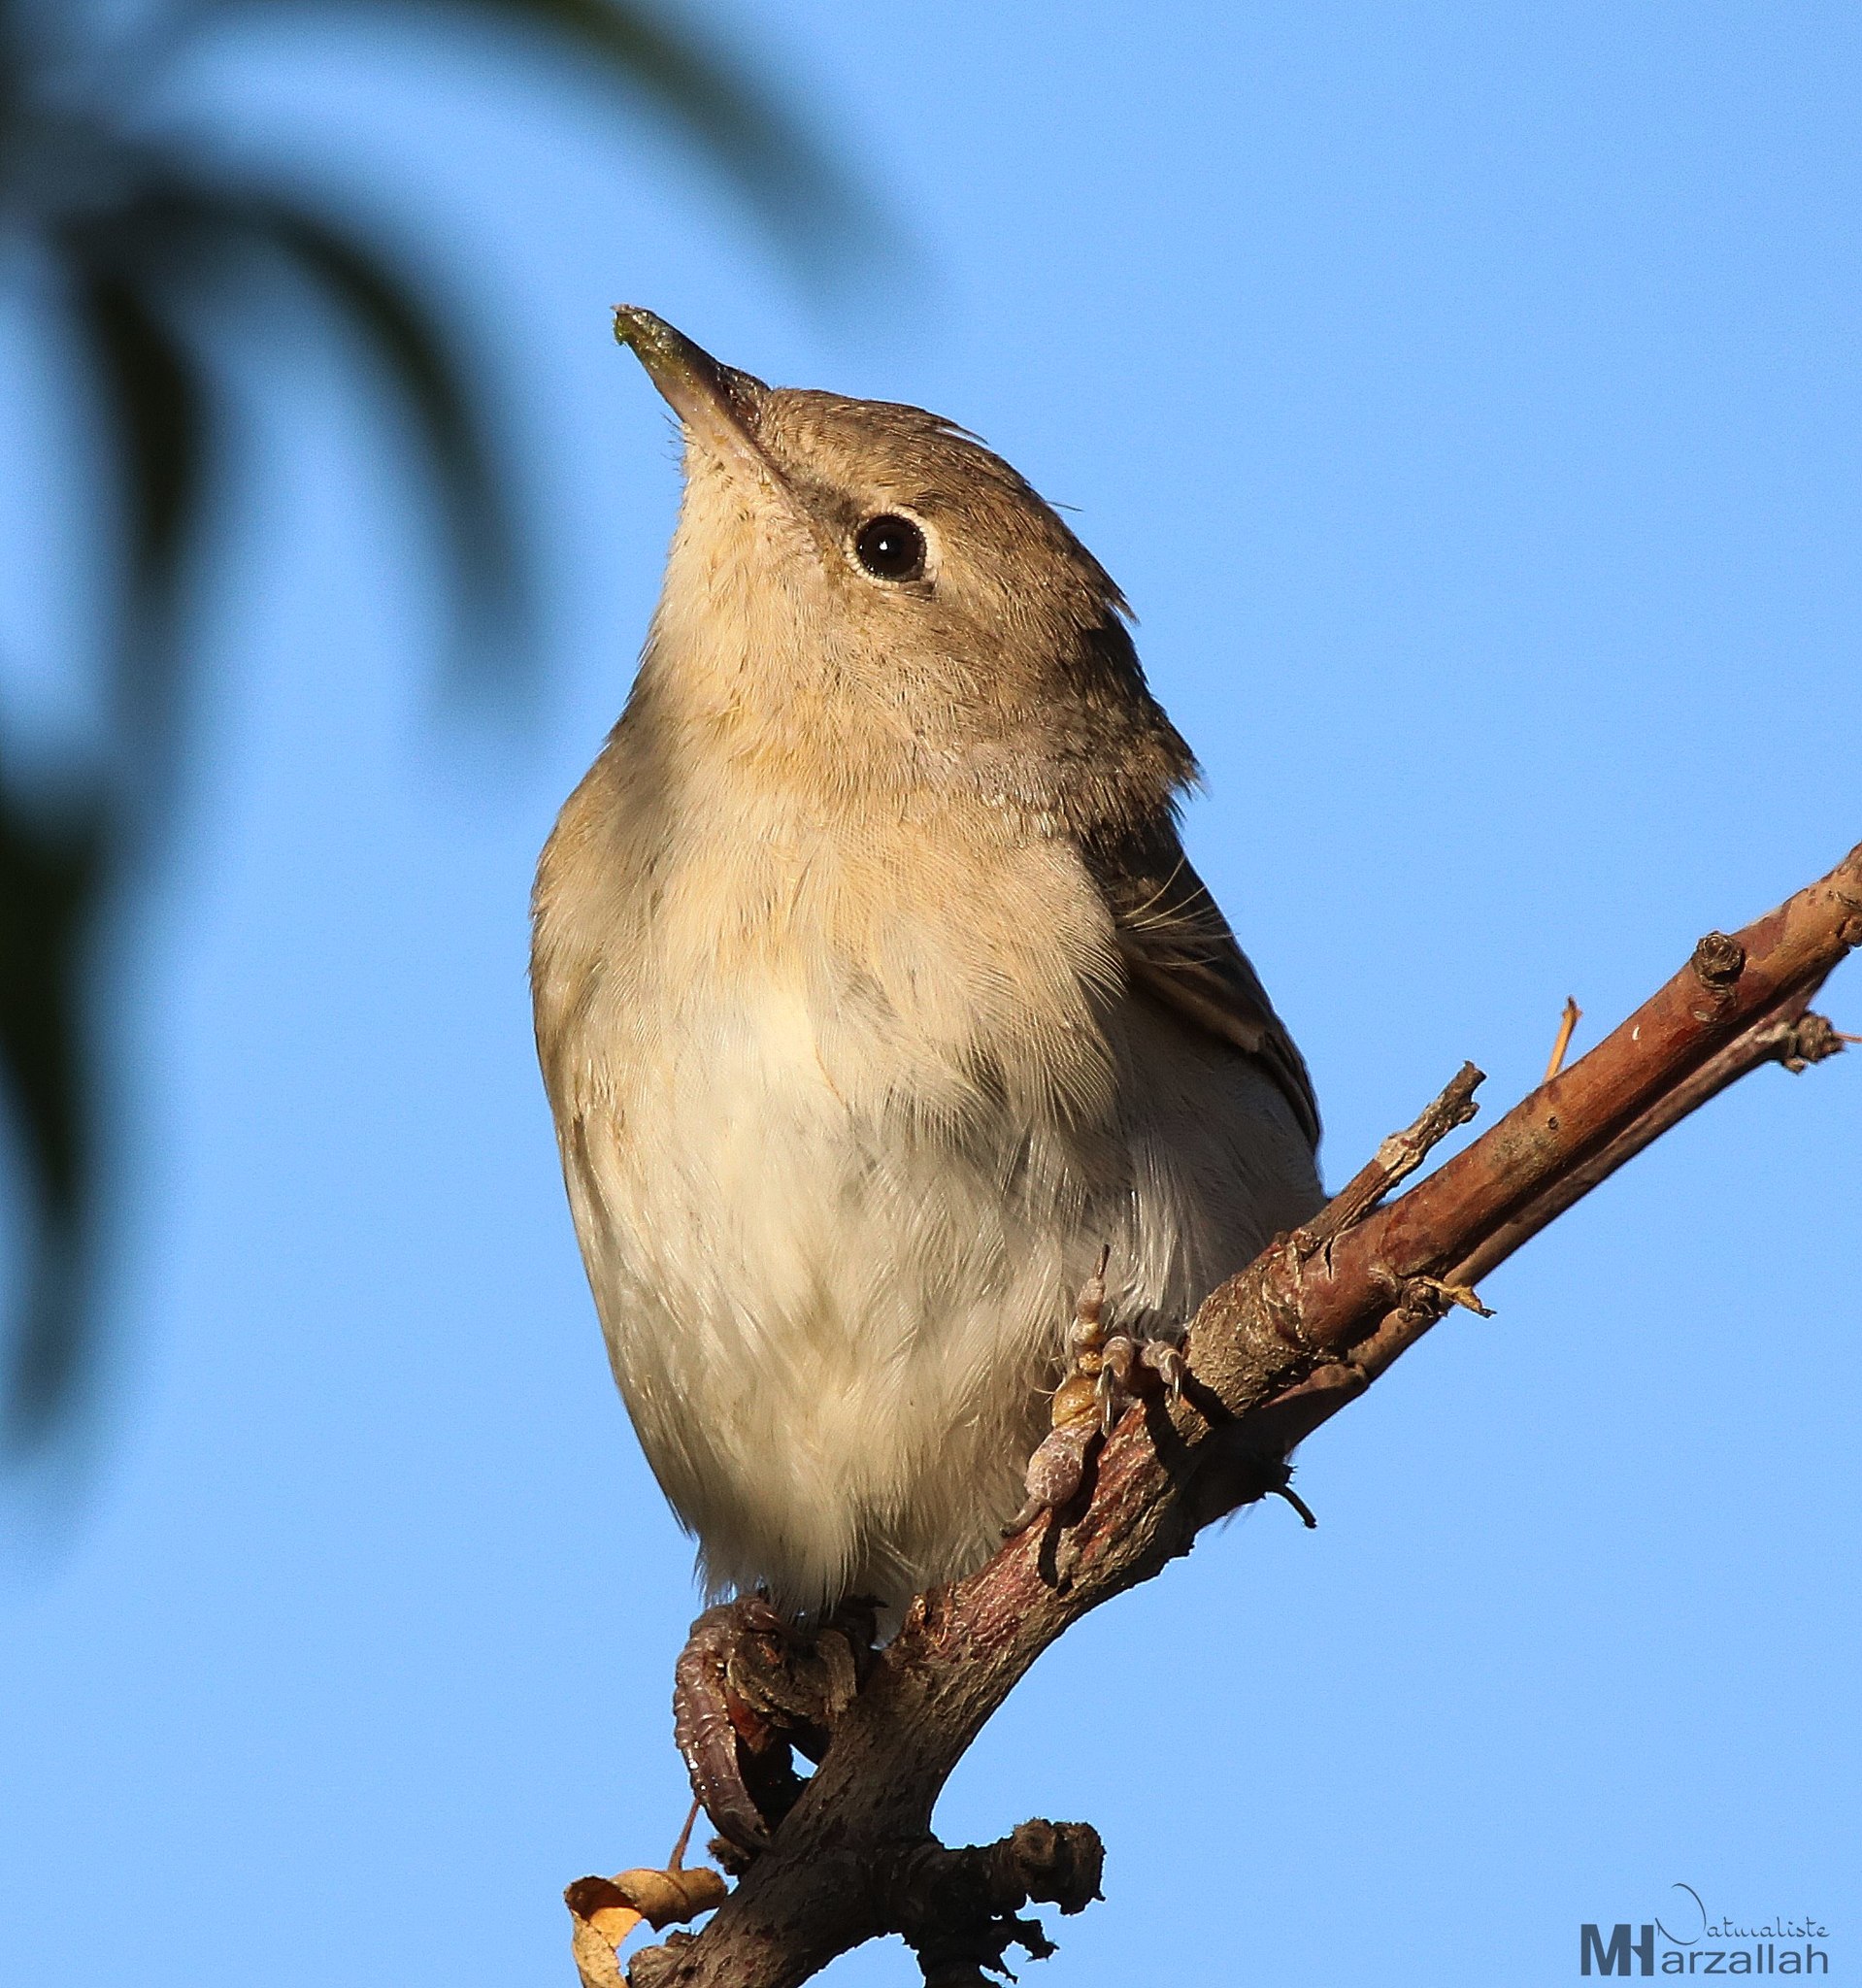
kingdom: Animalia
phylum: Chordata
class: Aves
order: Passeriformes
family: Sylviidae
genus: Sylvia
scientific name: Sylvia borin
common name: Garden warbler
